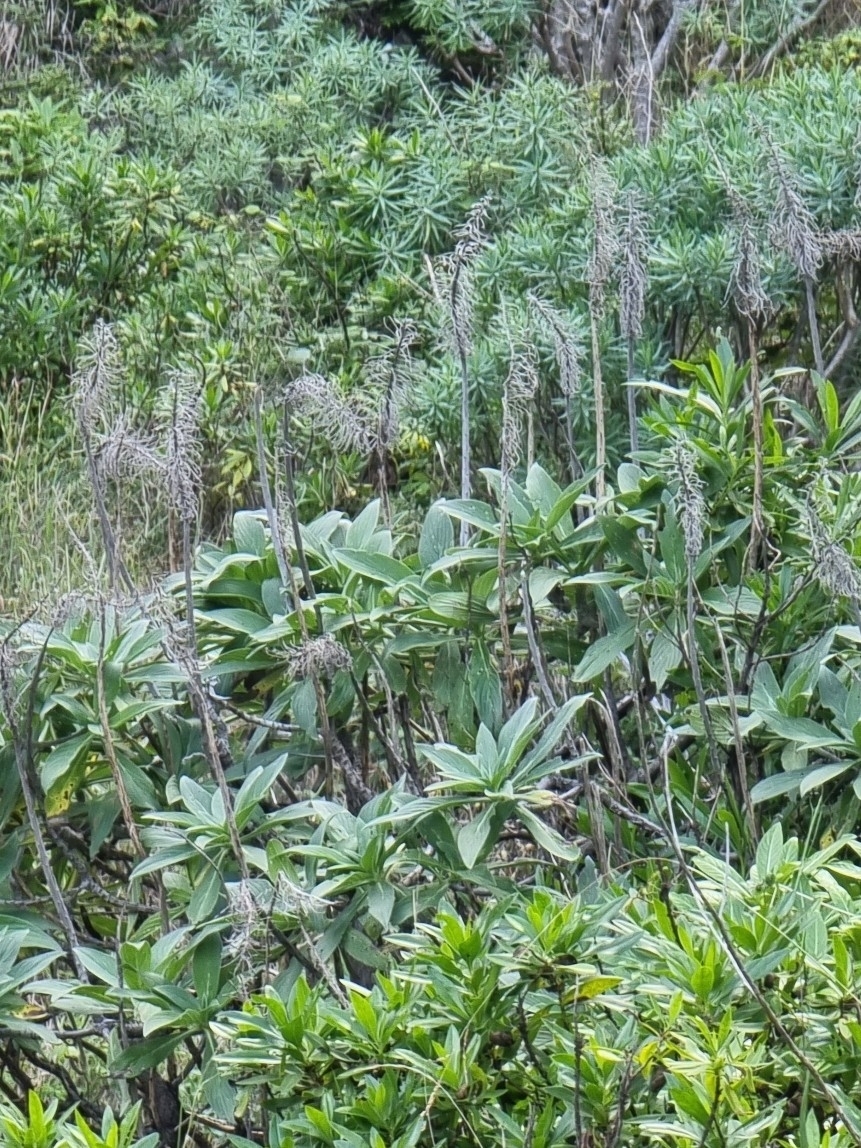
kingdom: Plantae
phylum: Tracheophyta
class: Magnoliopsida
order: Boraginales
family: Boraginaceae
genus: Echium
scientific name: Echium nervosum
